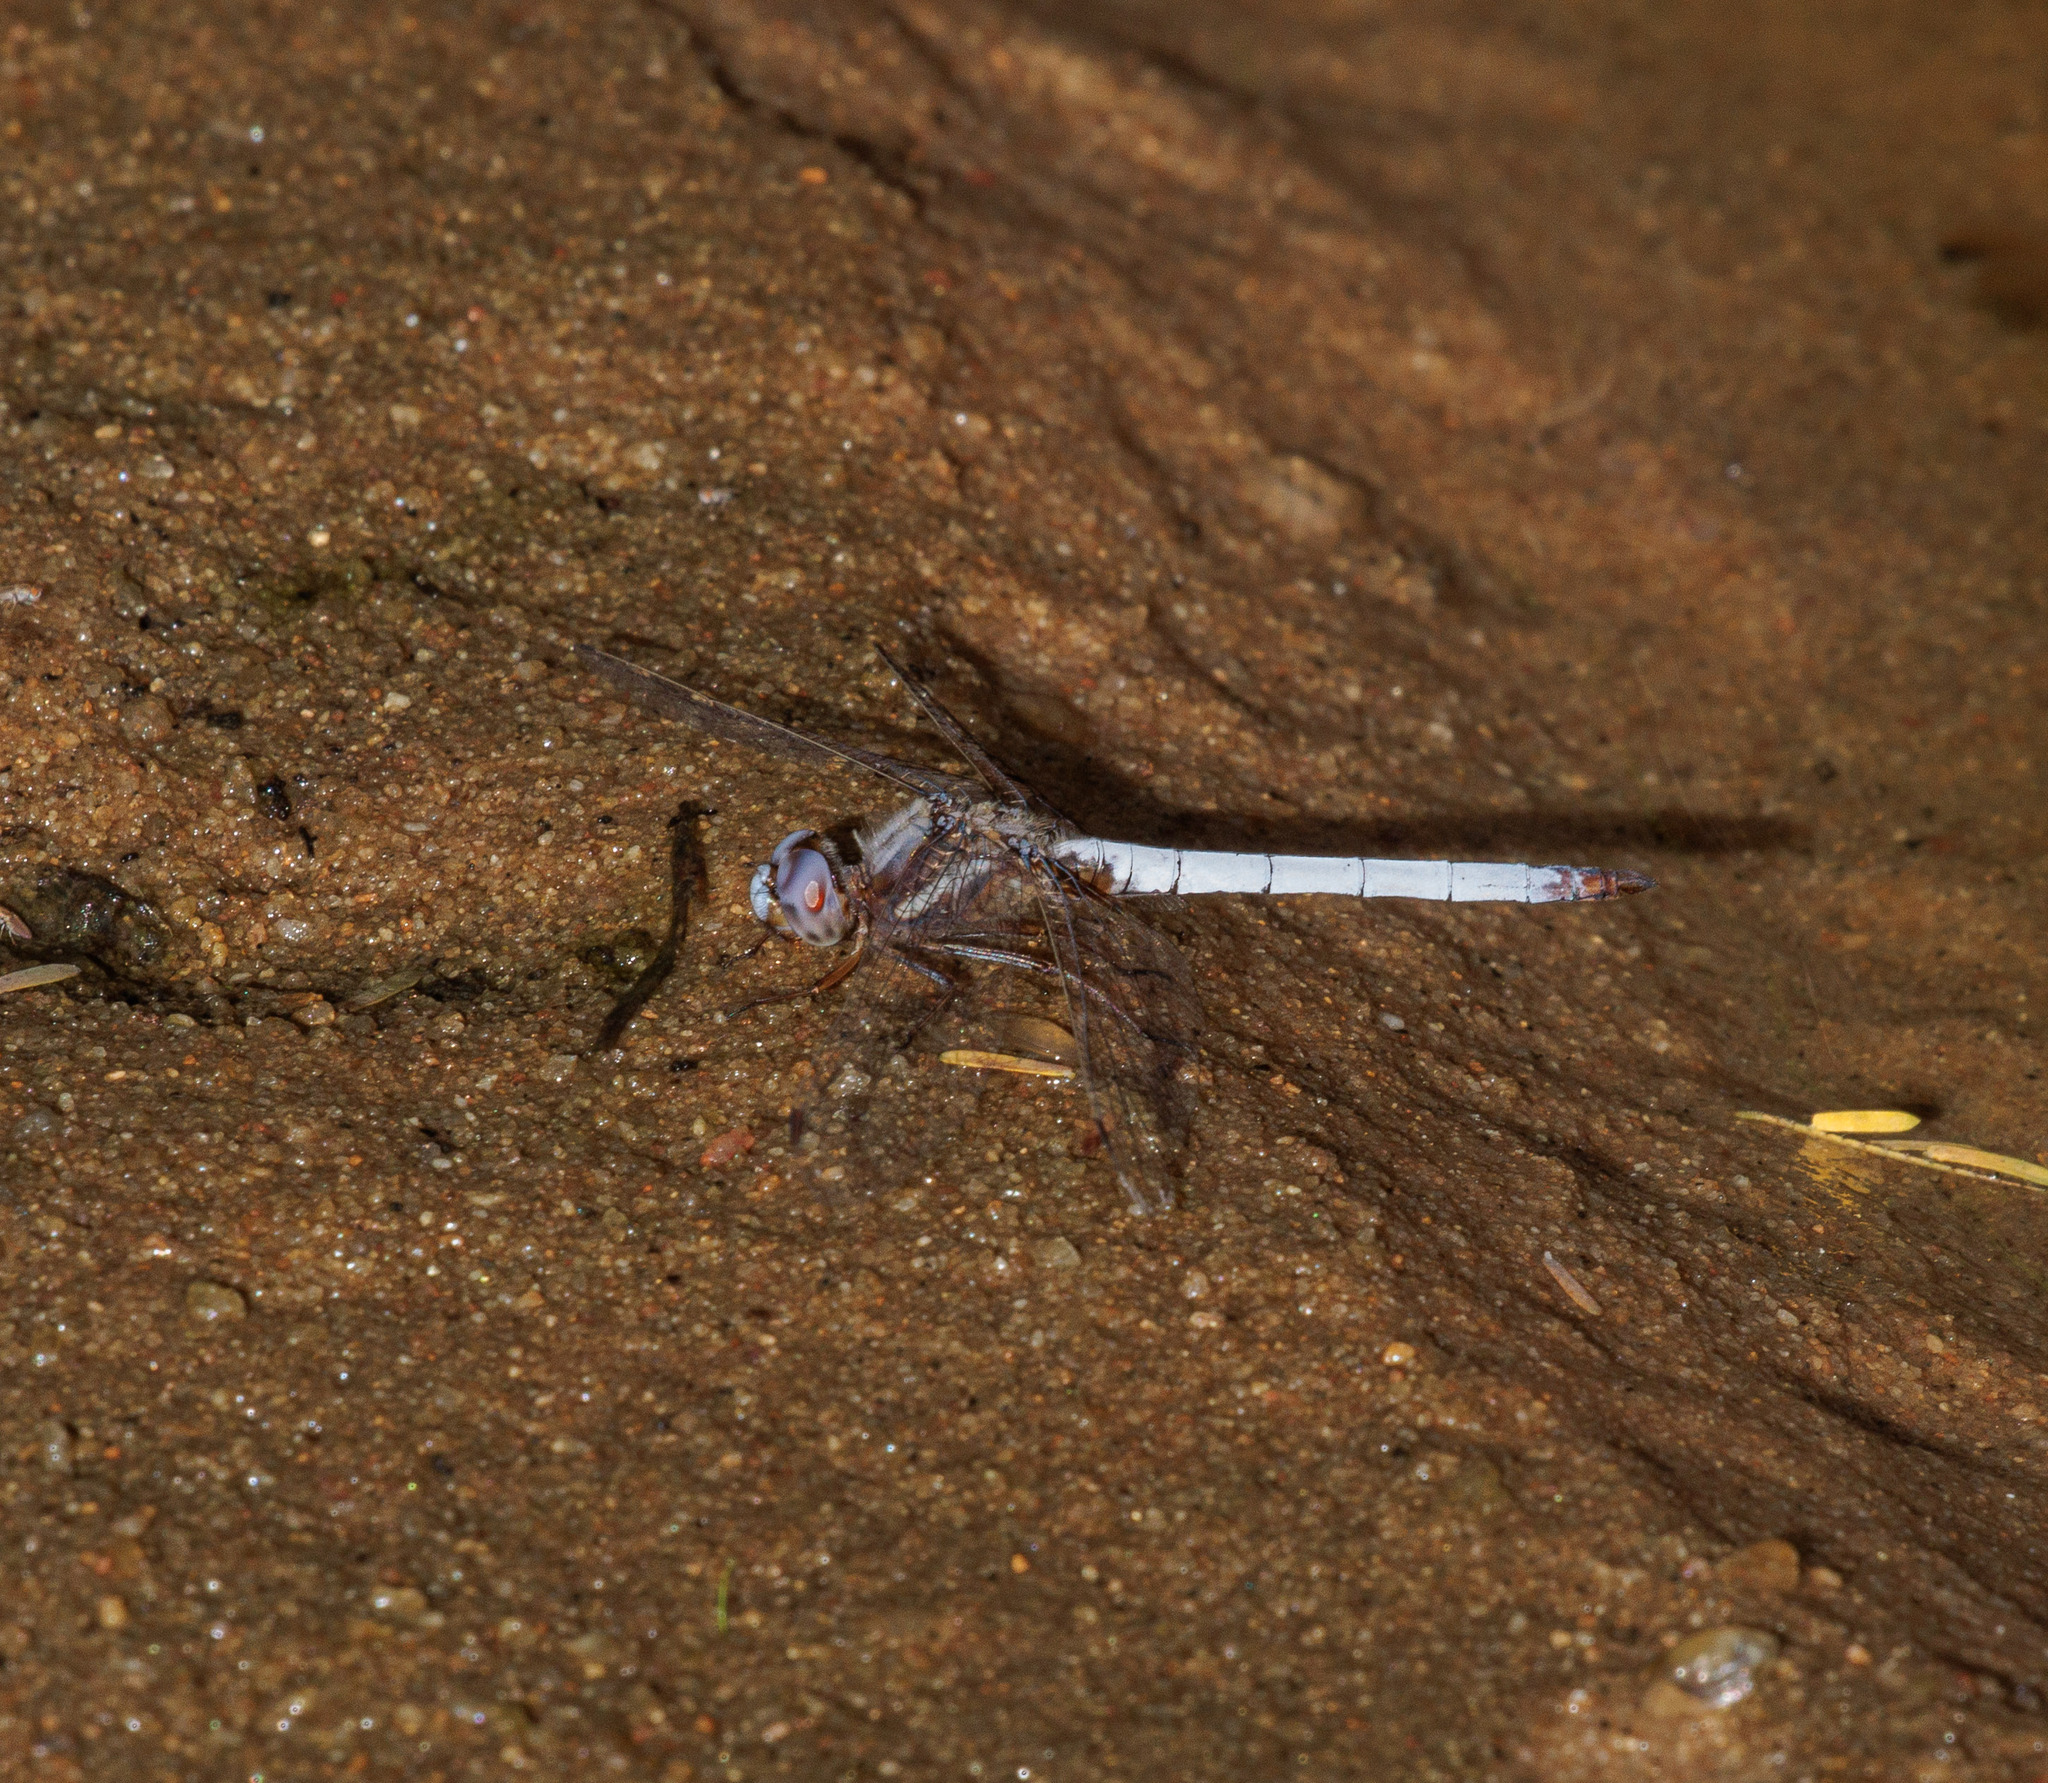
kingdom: Animalia
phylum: Arthropoda
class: Insecta
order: Odonata
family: Libellulidae
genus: Macrothemis
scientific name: Macrothemis griseofrons
